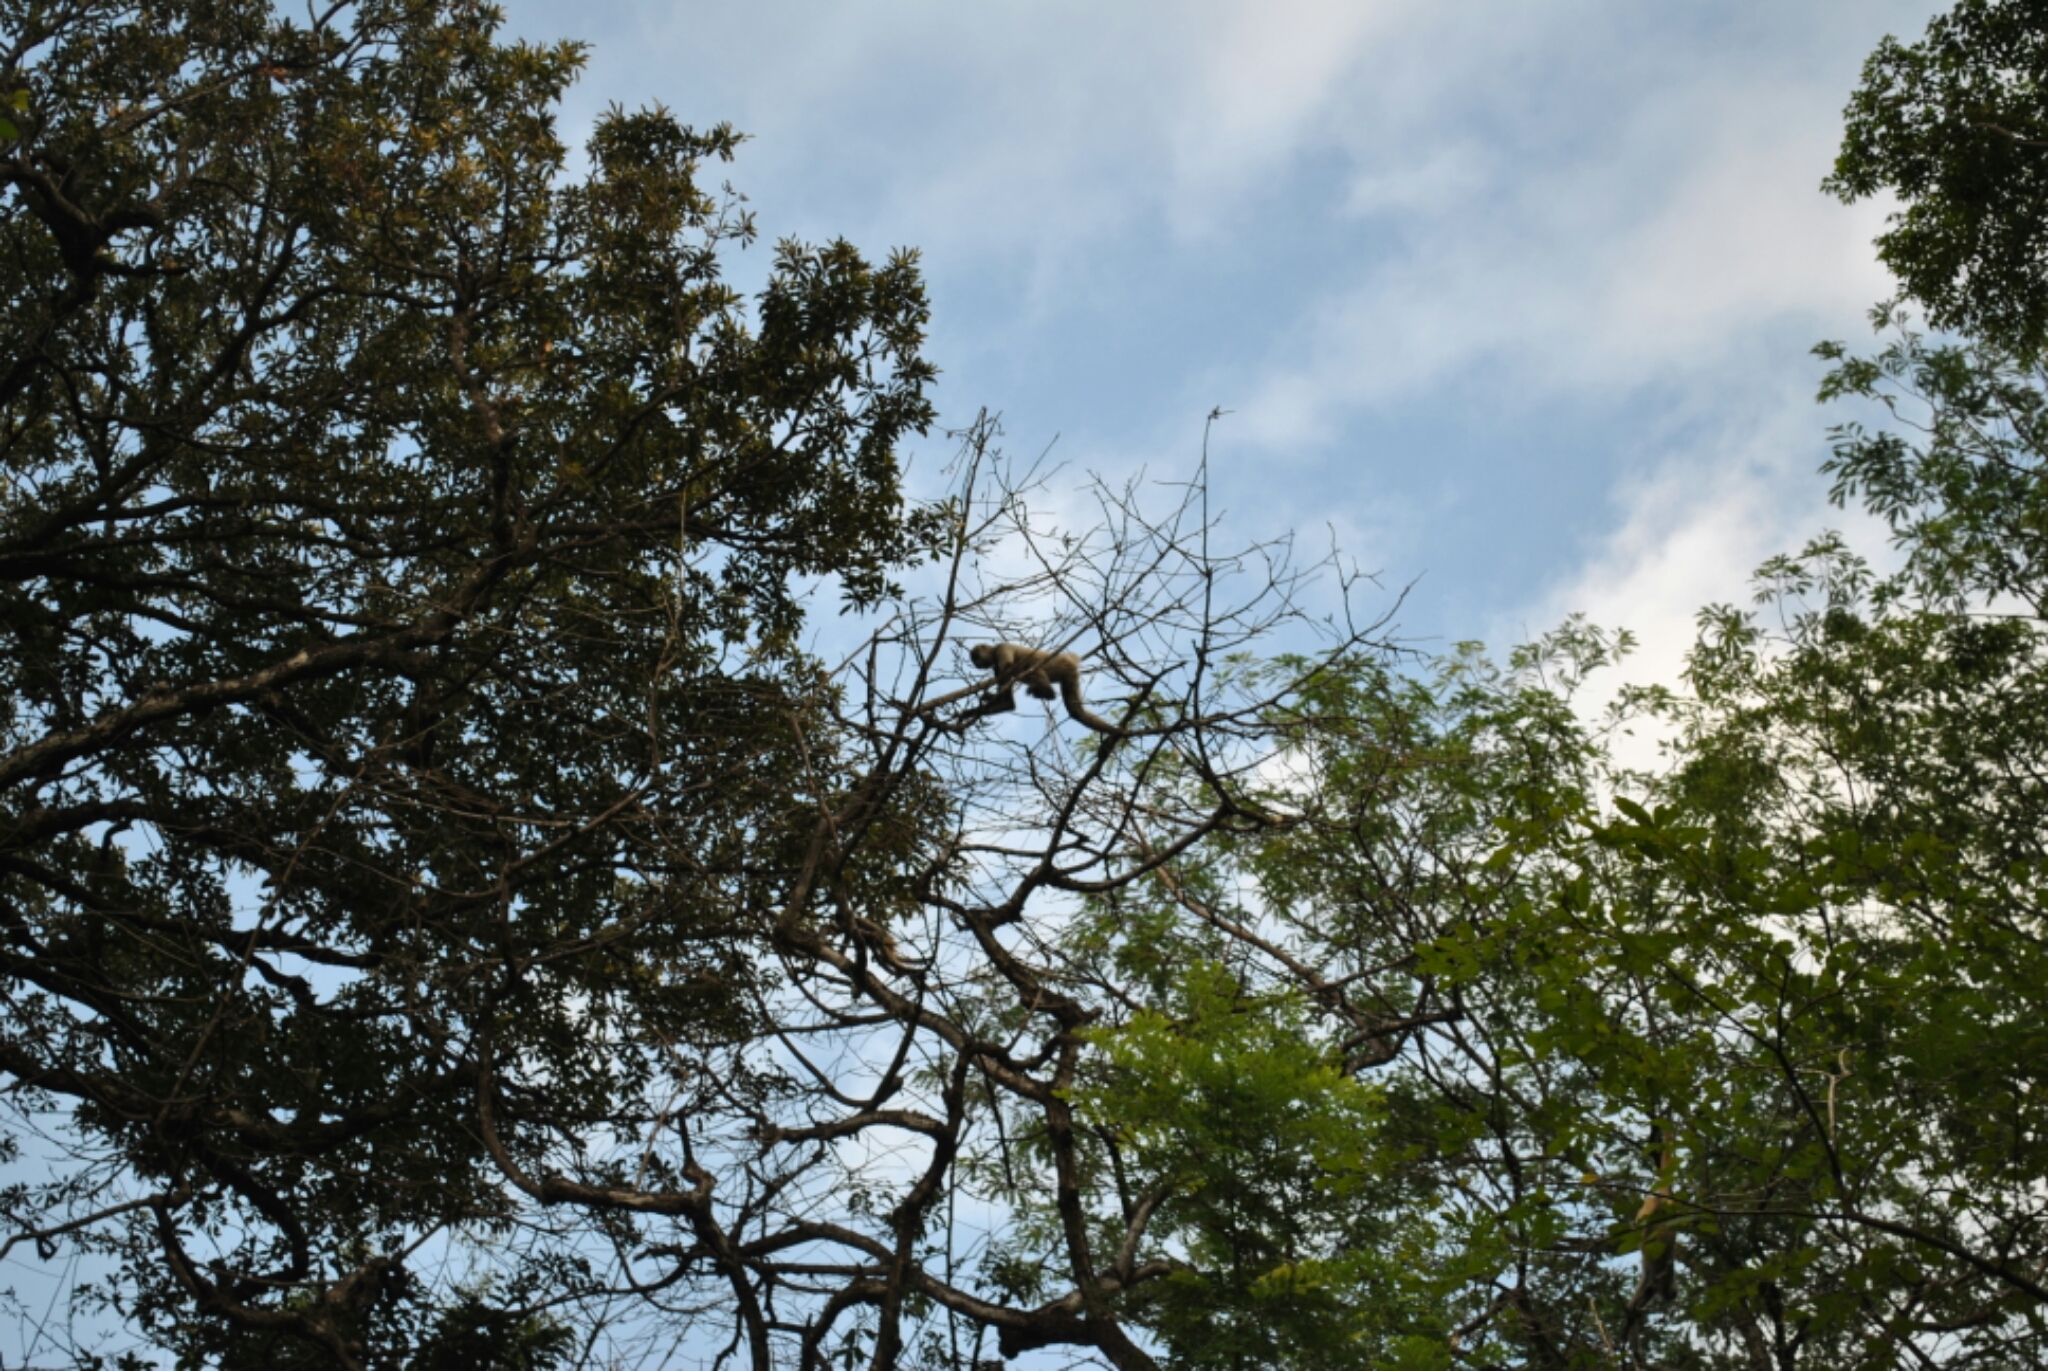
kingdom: Animalia
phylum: Chordata
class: Mammalia
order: Primates
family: Atelidae
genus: Ateles
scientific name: Ateles geoffroyi
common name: Black-handed spider monkey
